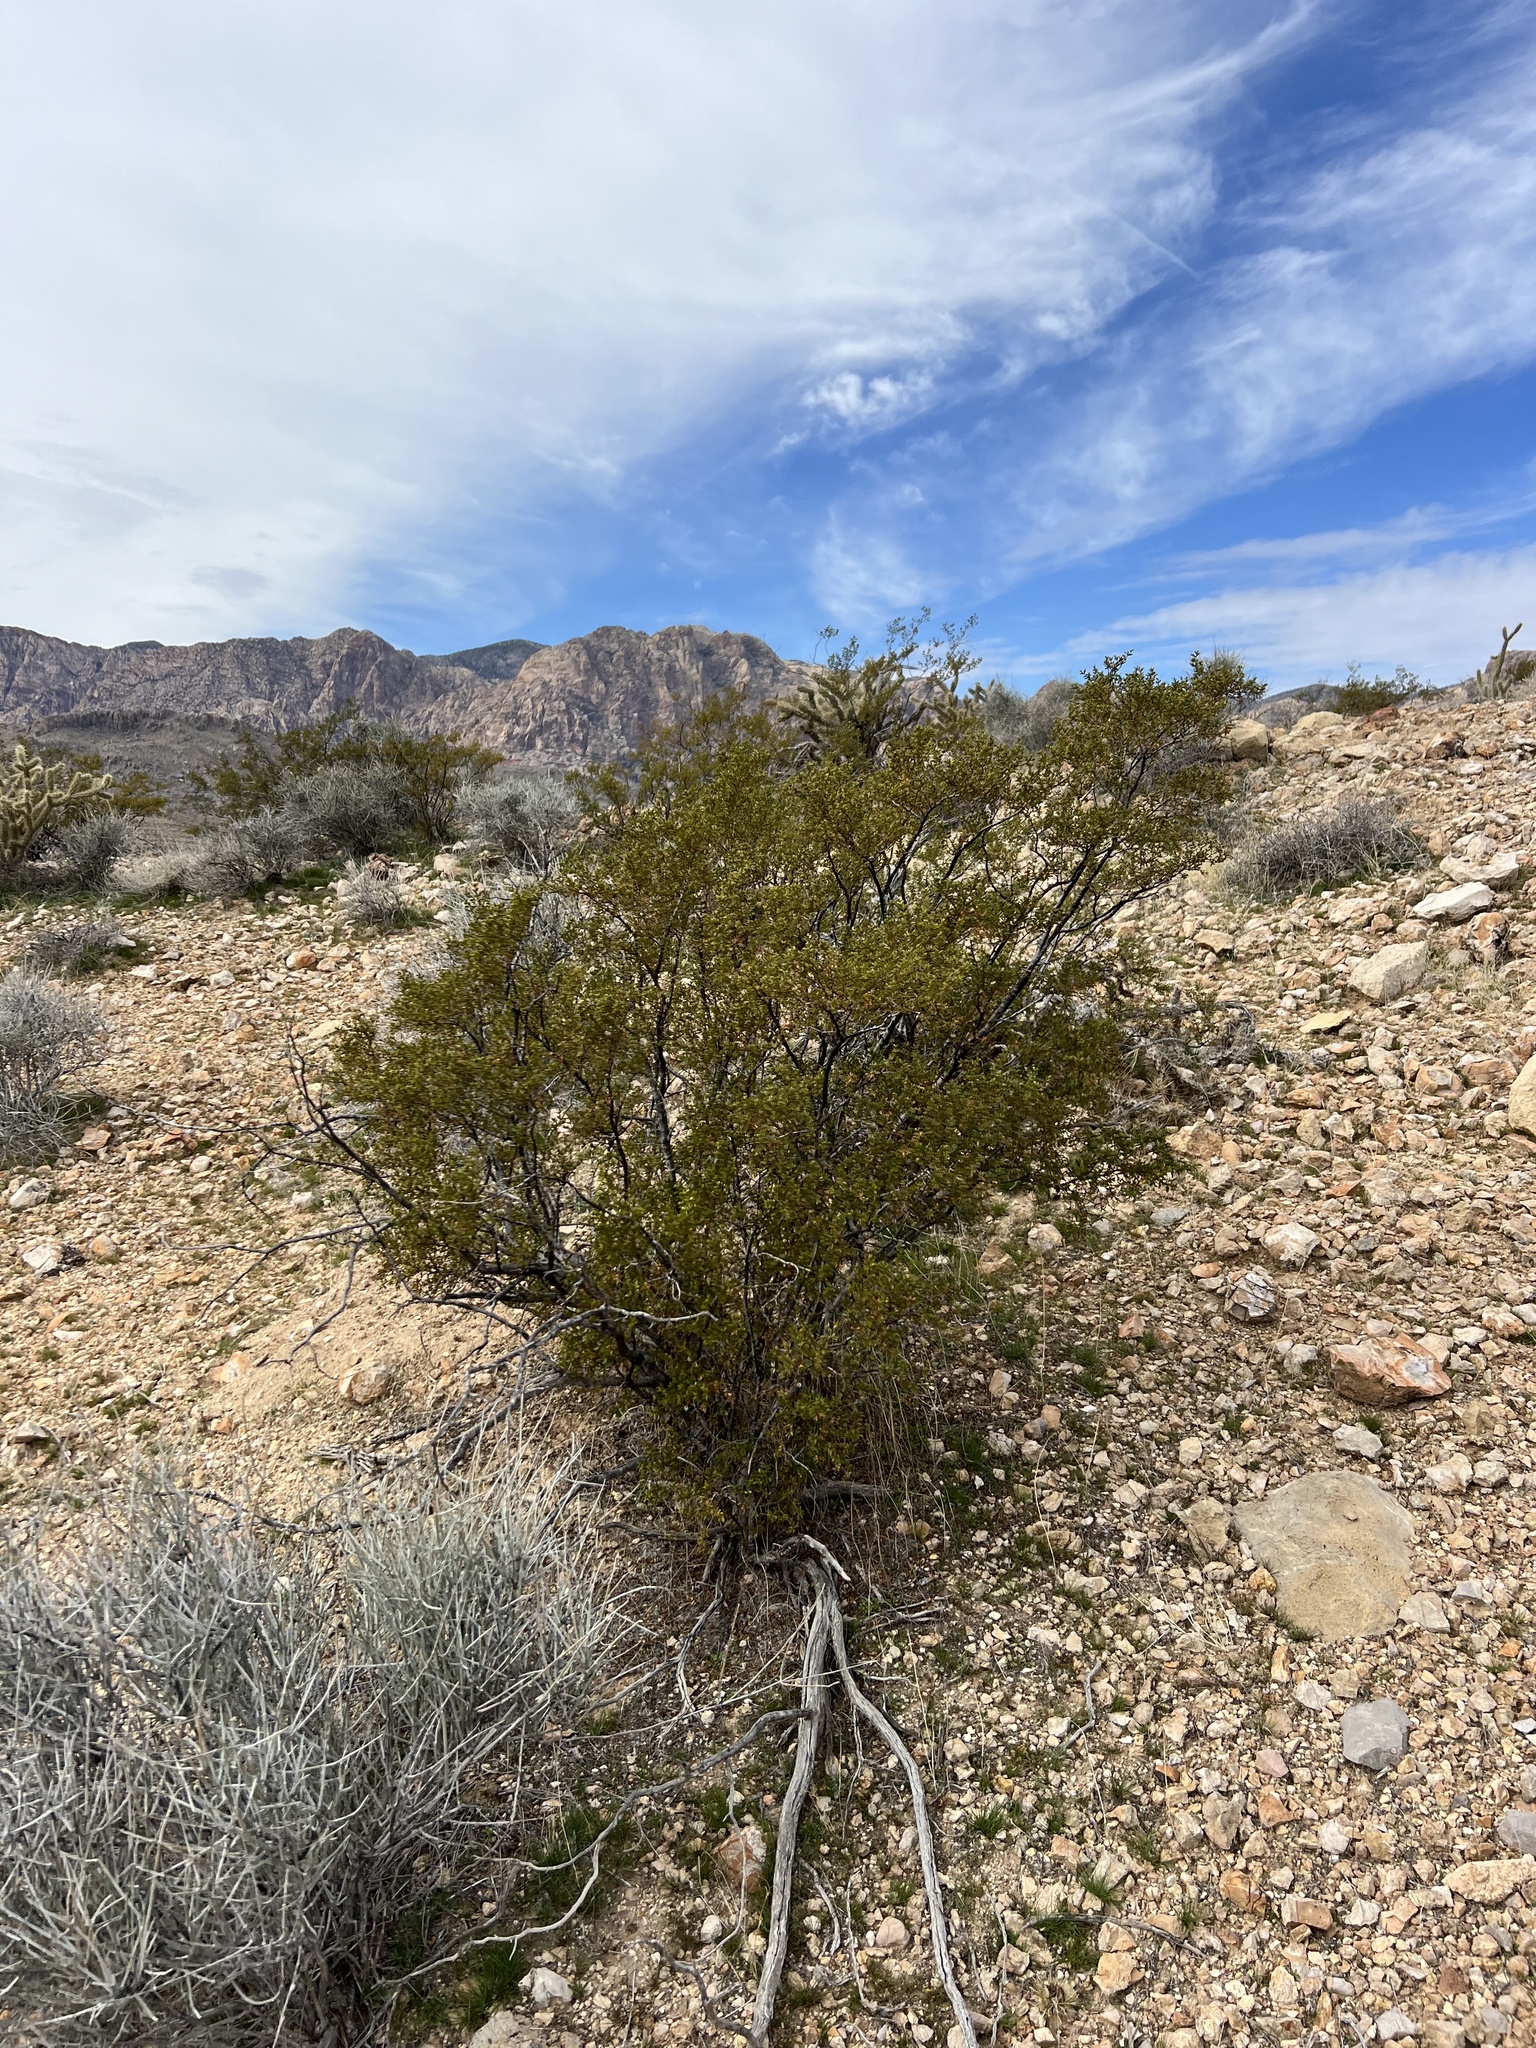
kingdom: Plantae
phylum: Tracheophyta
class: Magnoliopsida
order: Zygophyllales
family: Zygophyllaceae
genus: Larrea
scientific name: Larrea tridentata
